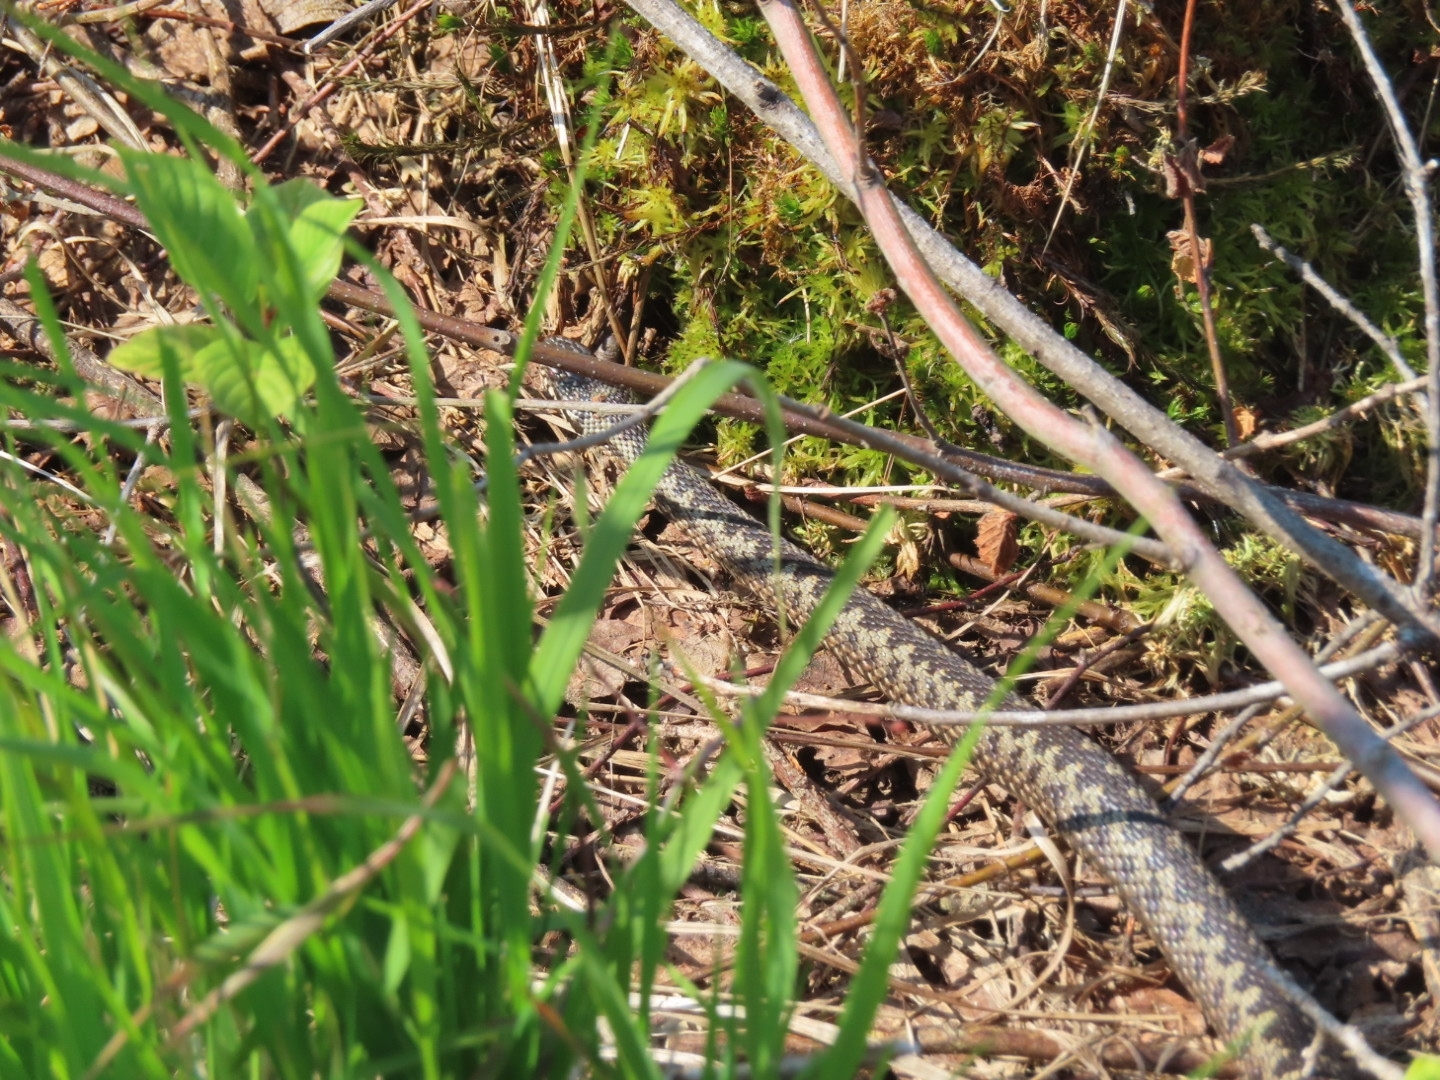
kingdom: Animalia
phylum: Chordata
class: Squamata
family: Viperidae
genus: Vipera
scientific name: Vipera berus
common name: Adder
